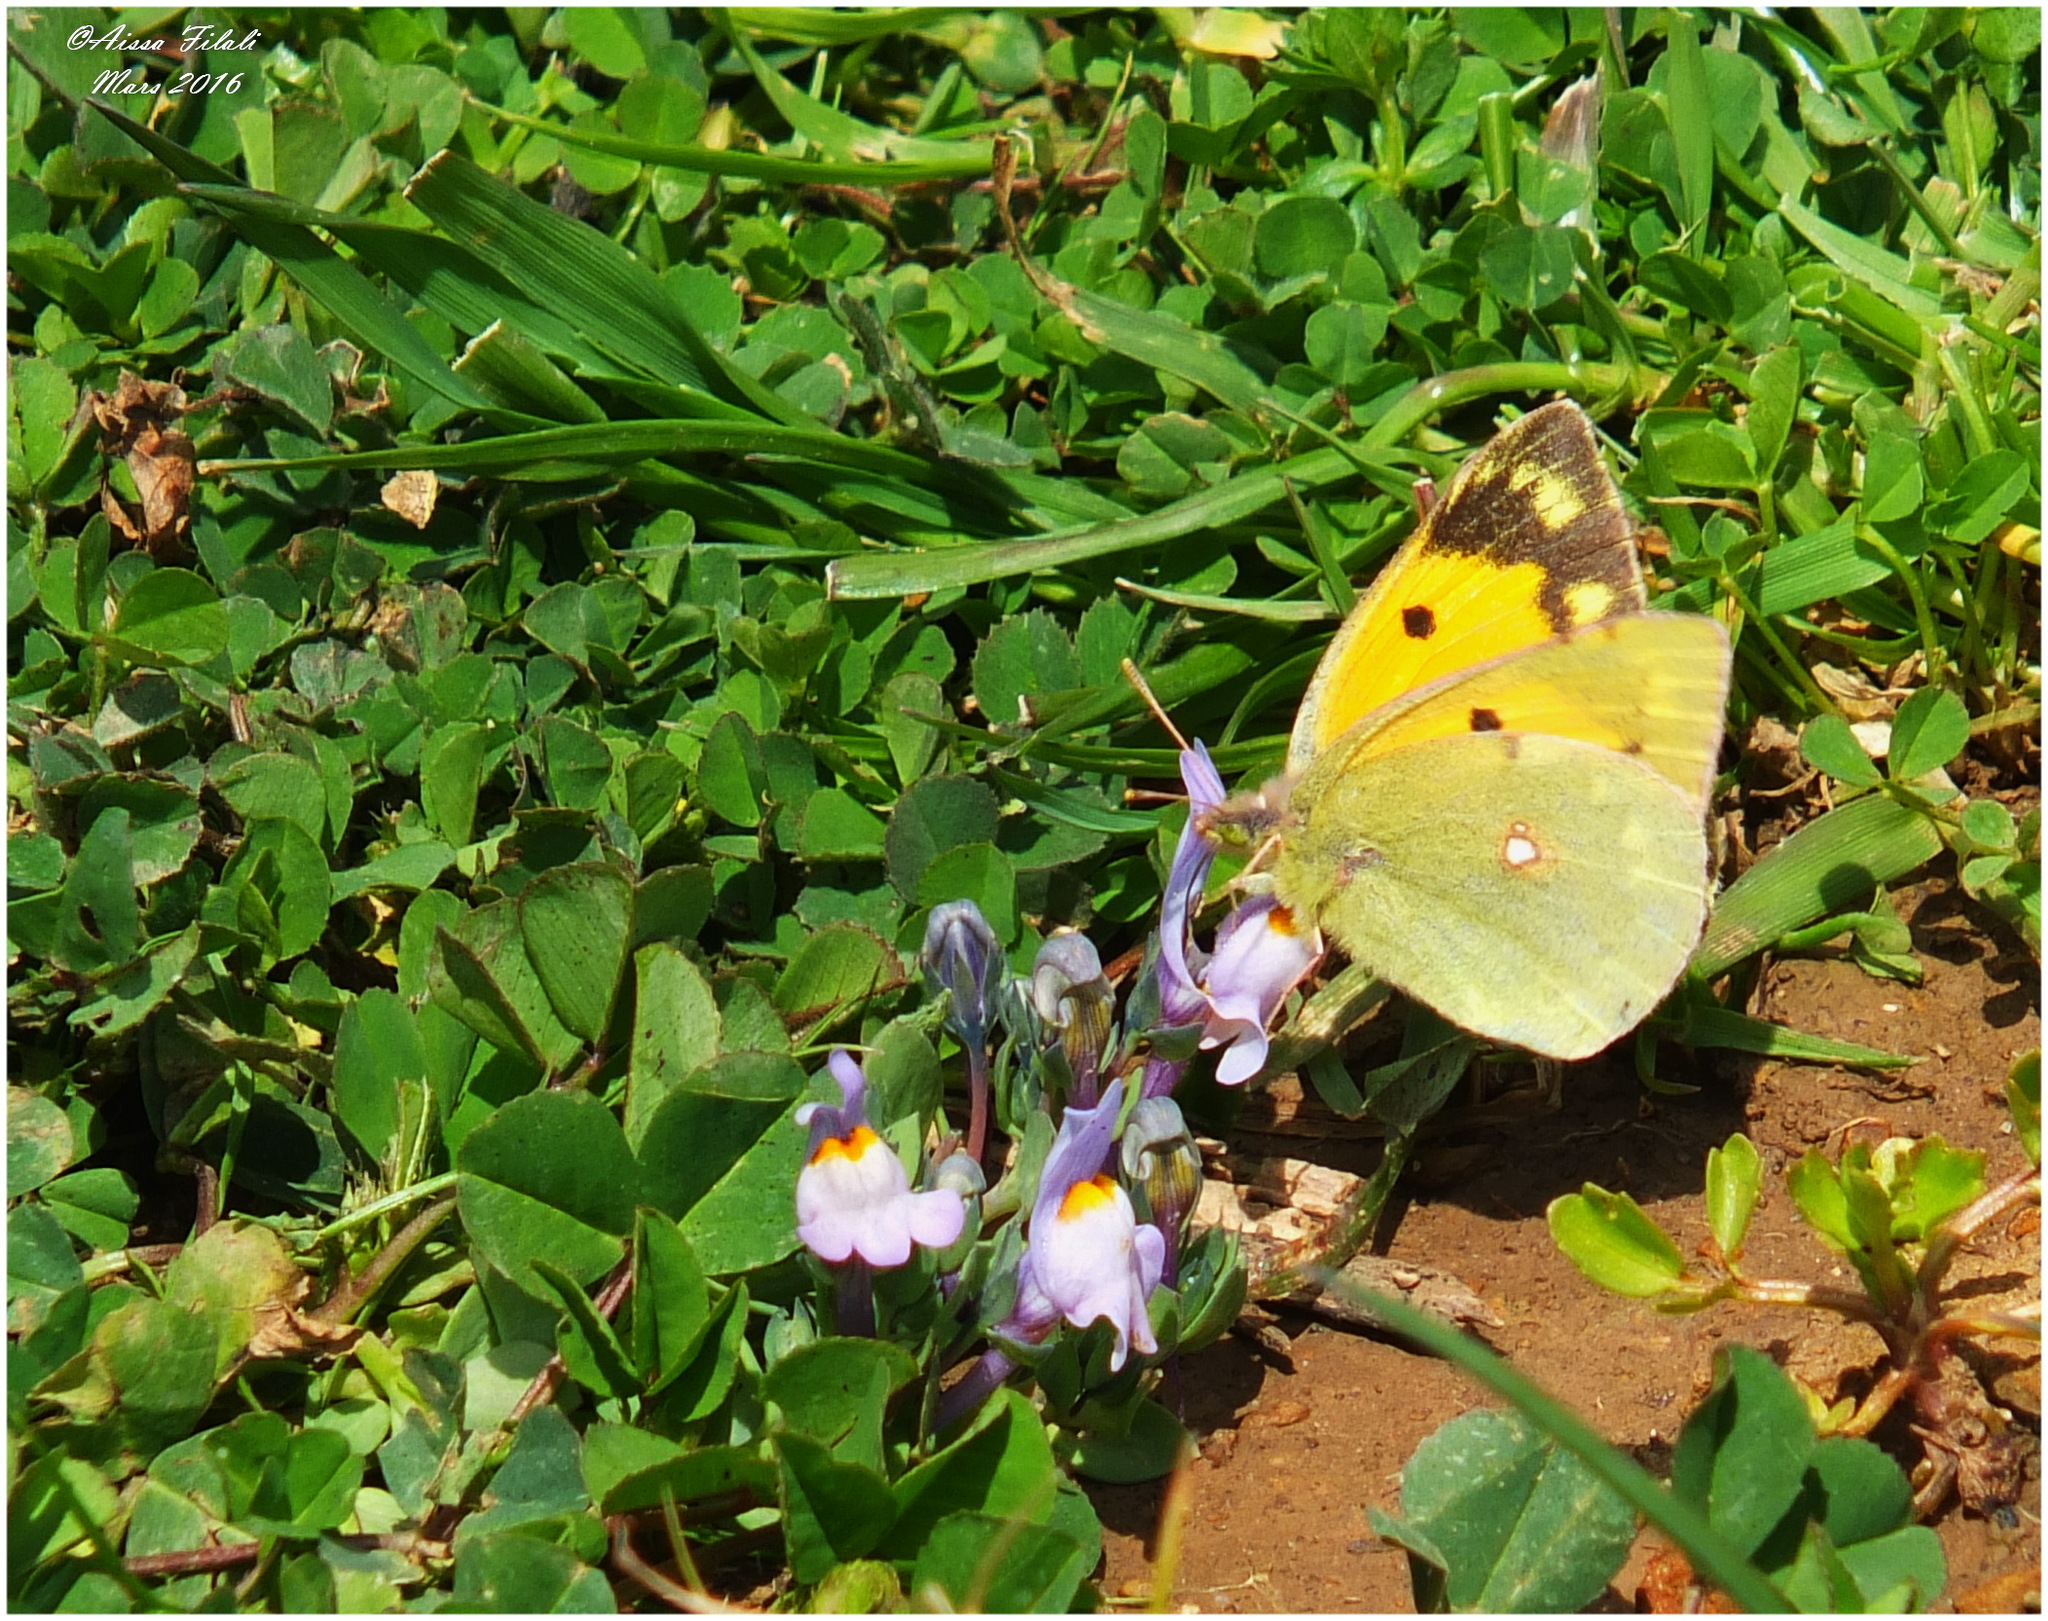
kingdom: Animalia
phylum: Arthropoda
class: Insecta
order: Lepidoptera
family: Pieridae
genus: Colias
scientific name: Colias croceus
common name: Clouded yellow
